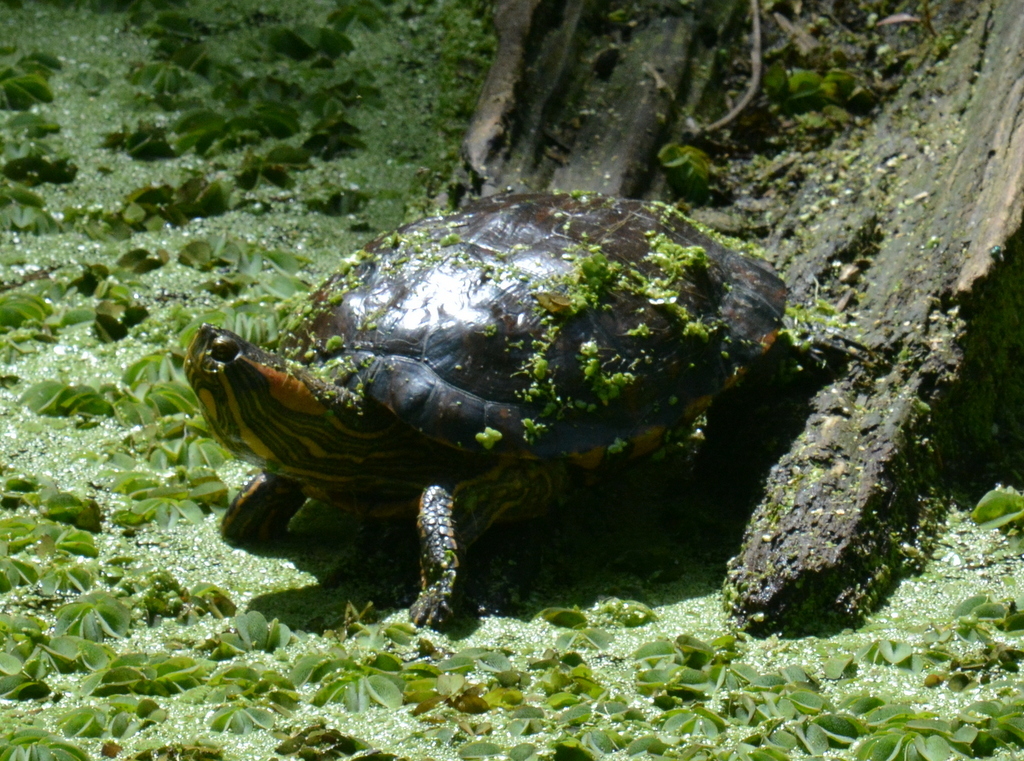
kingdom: Animalia
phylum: Chordata
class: Testudines
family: Emydidae
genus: Trachemys
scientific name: Trachemys dorbigni
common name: Black-bellied slider
